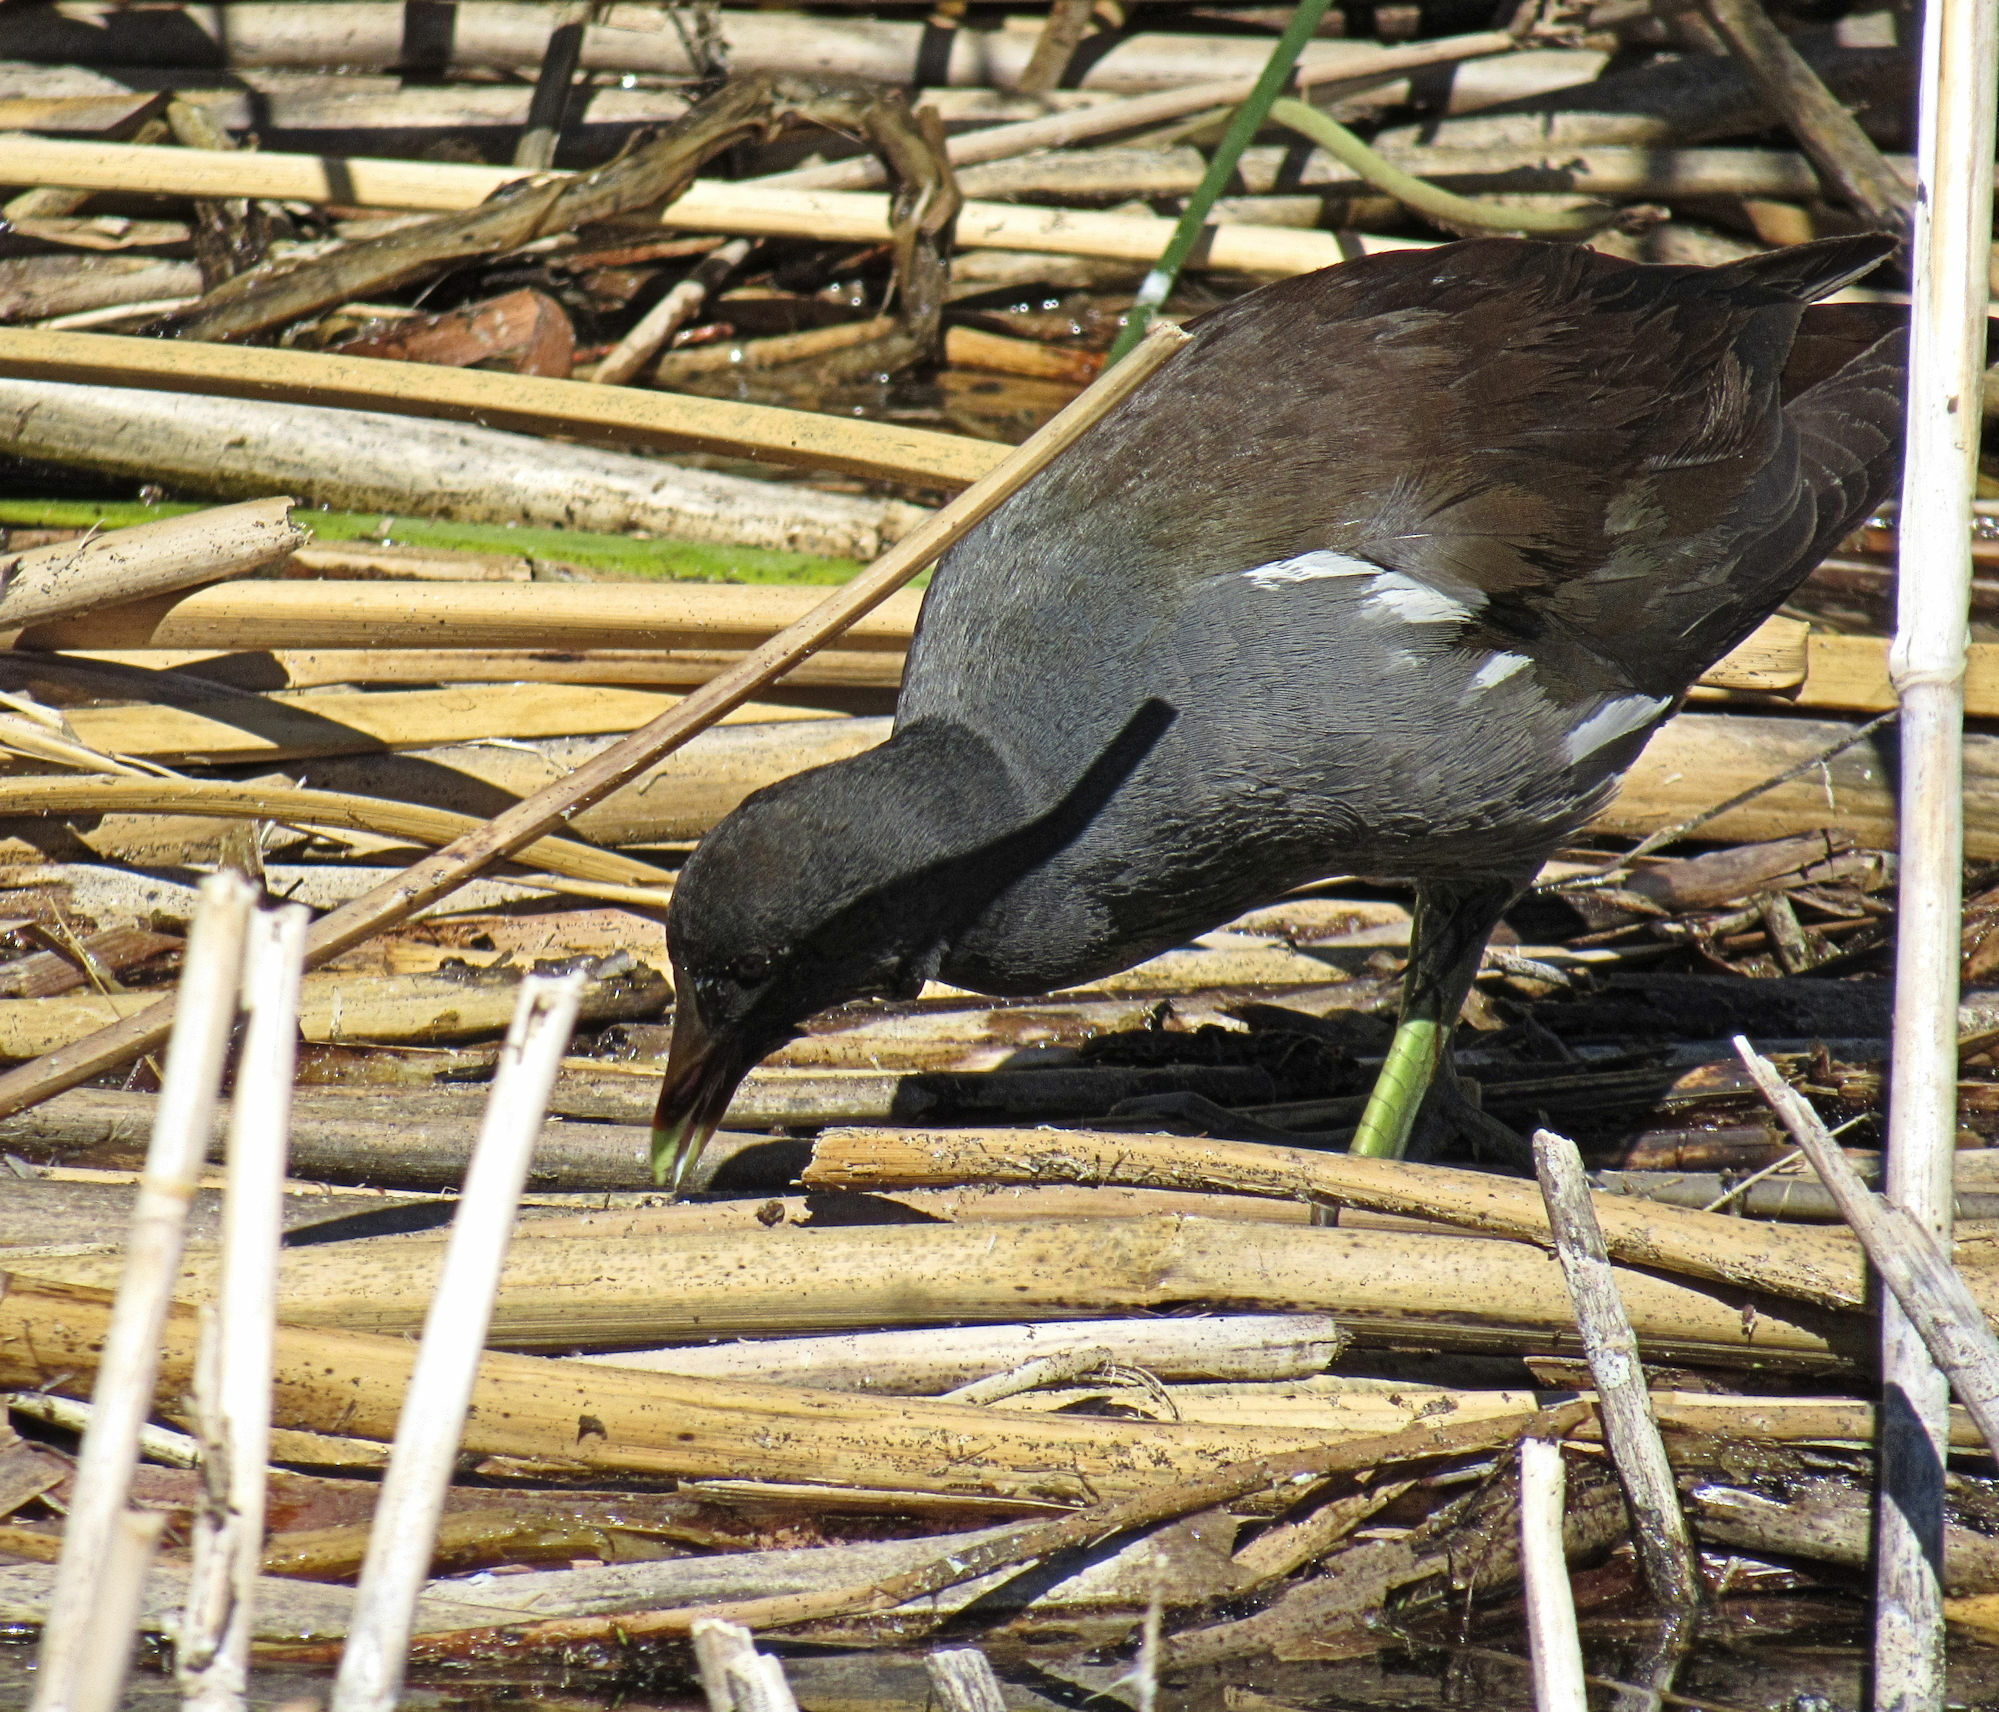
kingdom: Animalia
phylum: Chordata
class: Aves
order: Gruiformes
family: Rallidae
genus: Gallinula
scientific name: Gallinula chloropus
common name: Common moorhen
